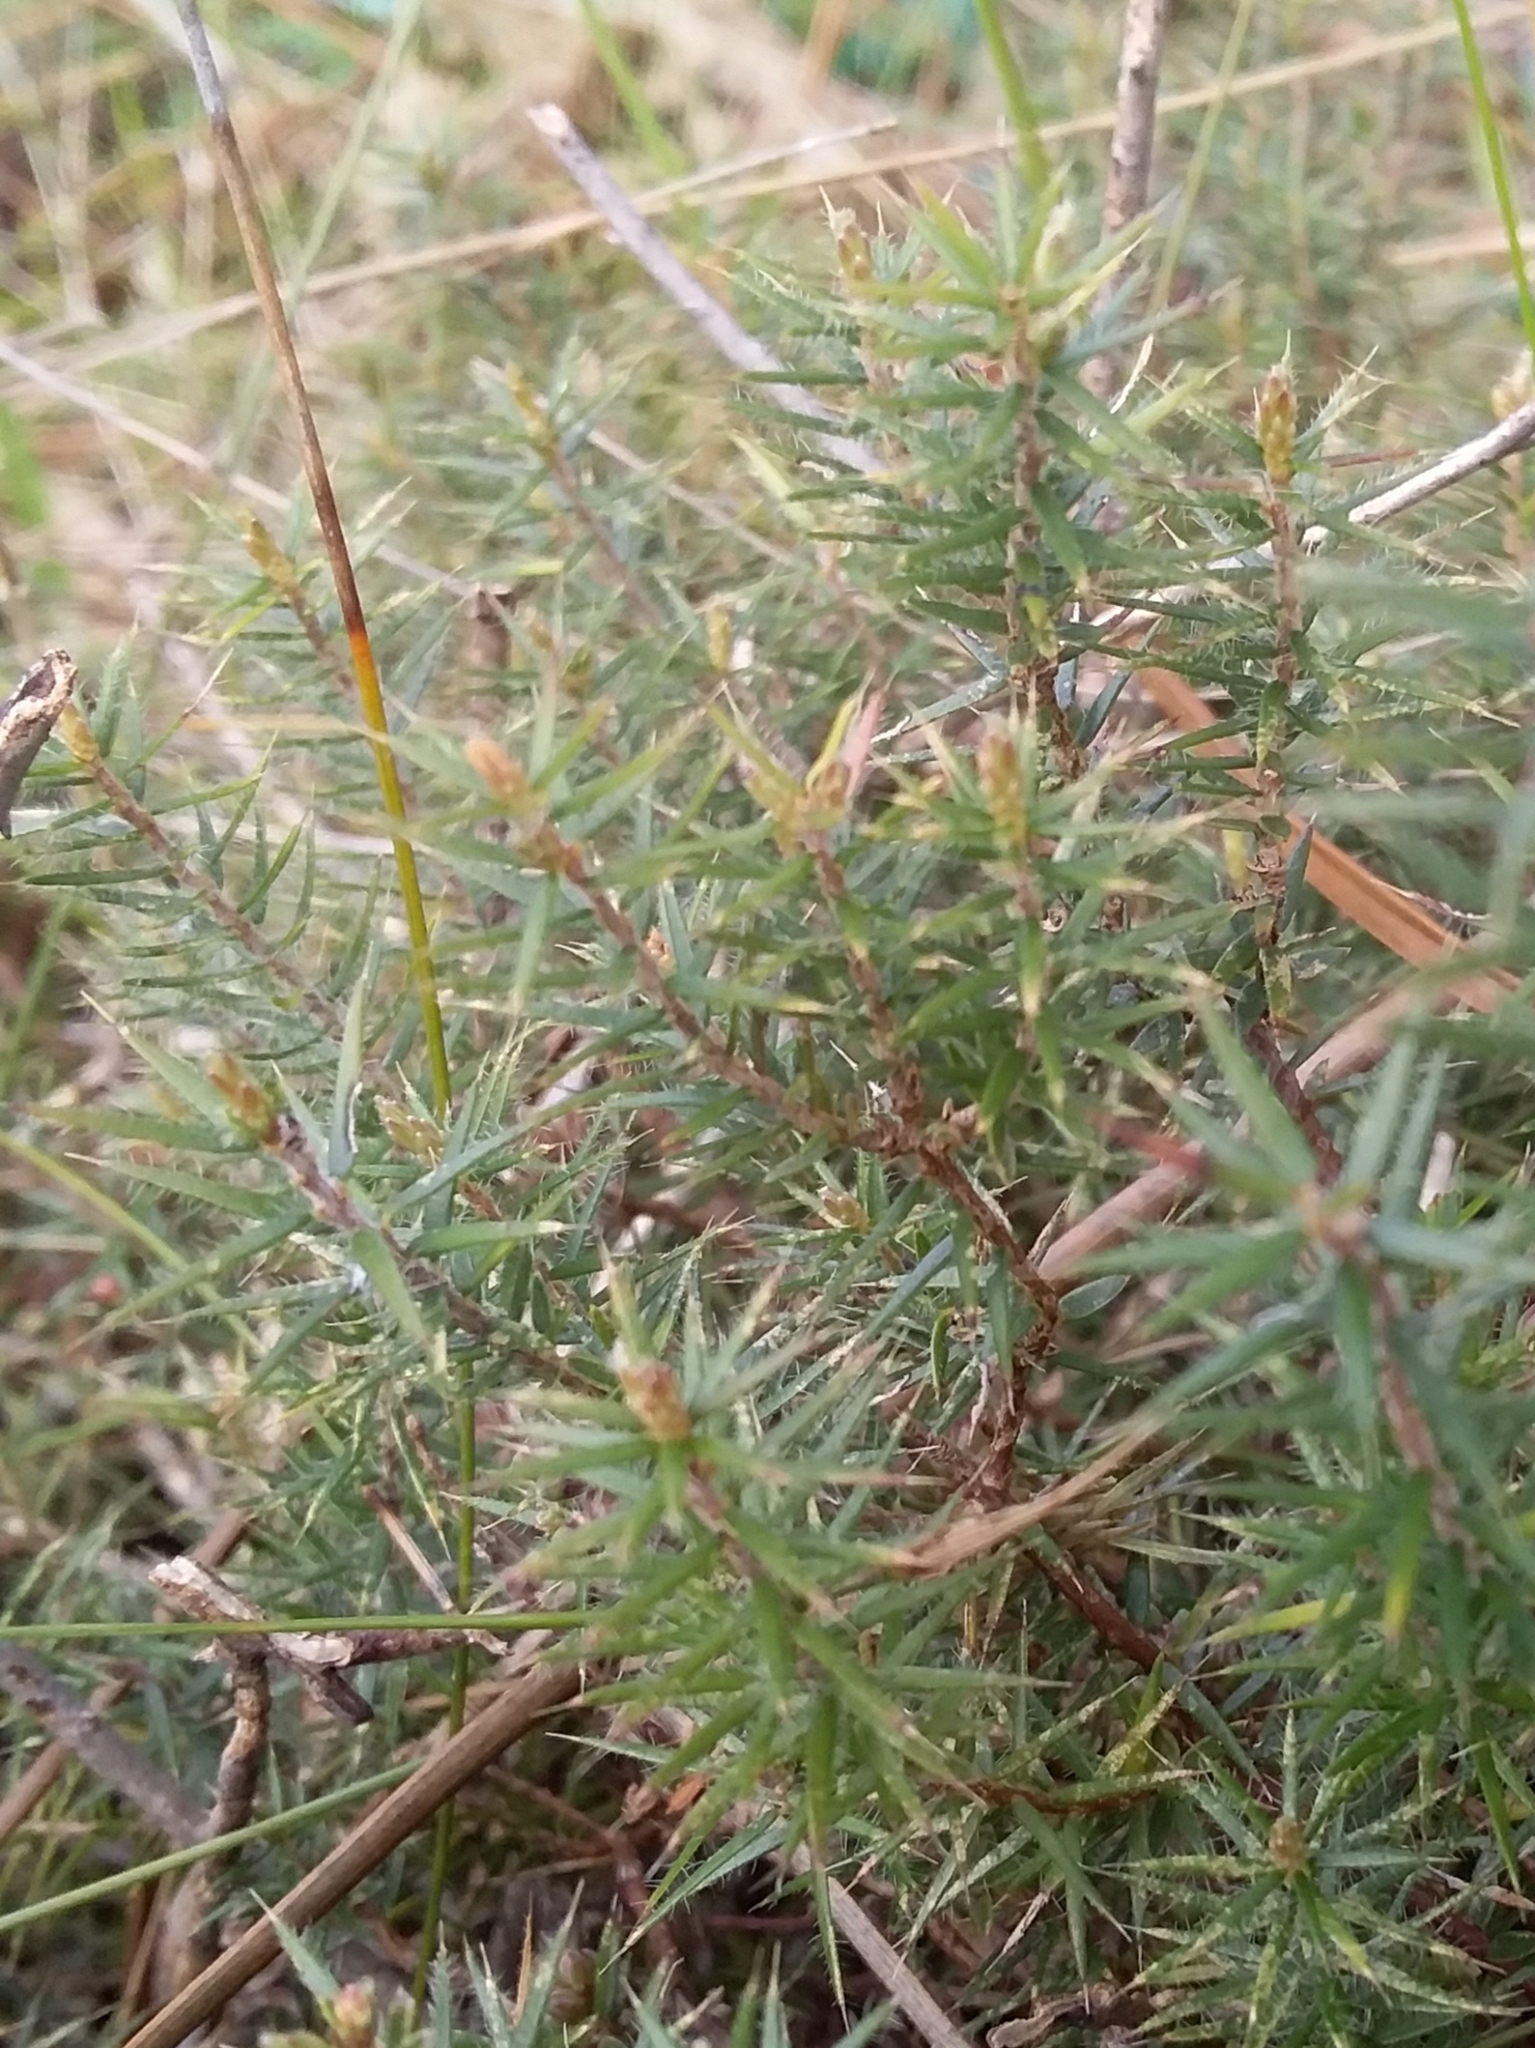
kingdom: Plantae
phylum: Tracheophyta
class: Magnoliopsida
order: Ericales
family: Ericaceae
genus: Acrotriche
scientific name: Acrotriche serrulata
